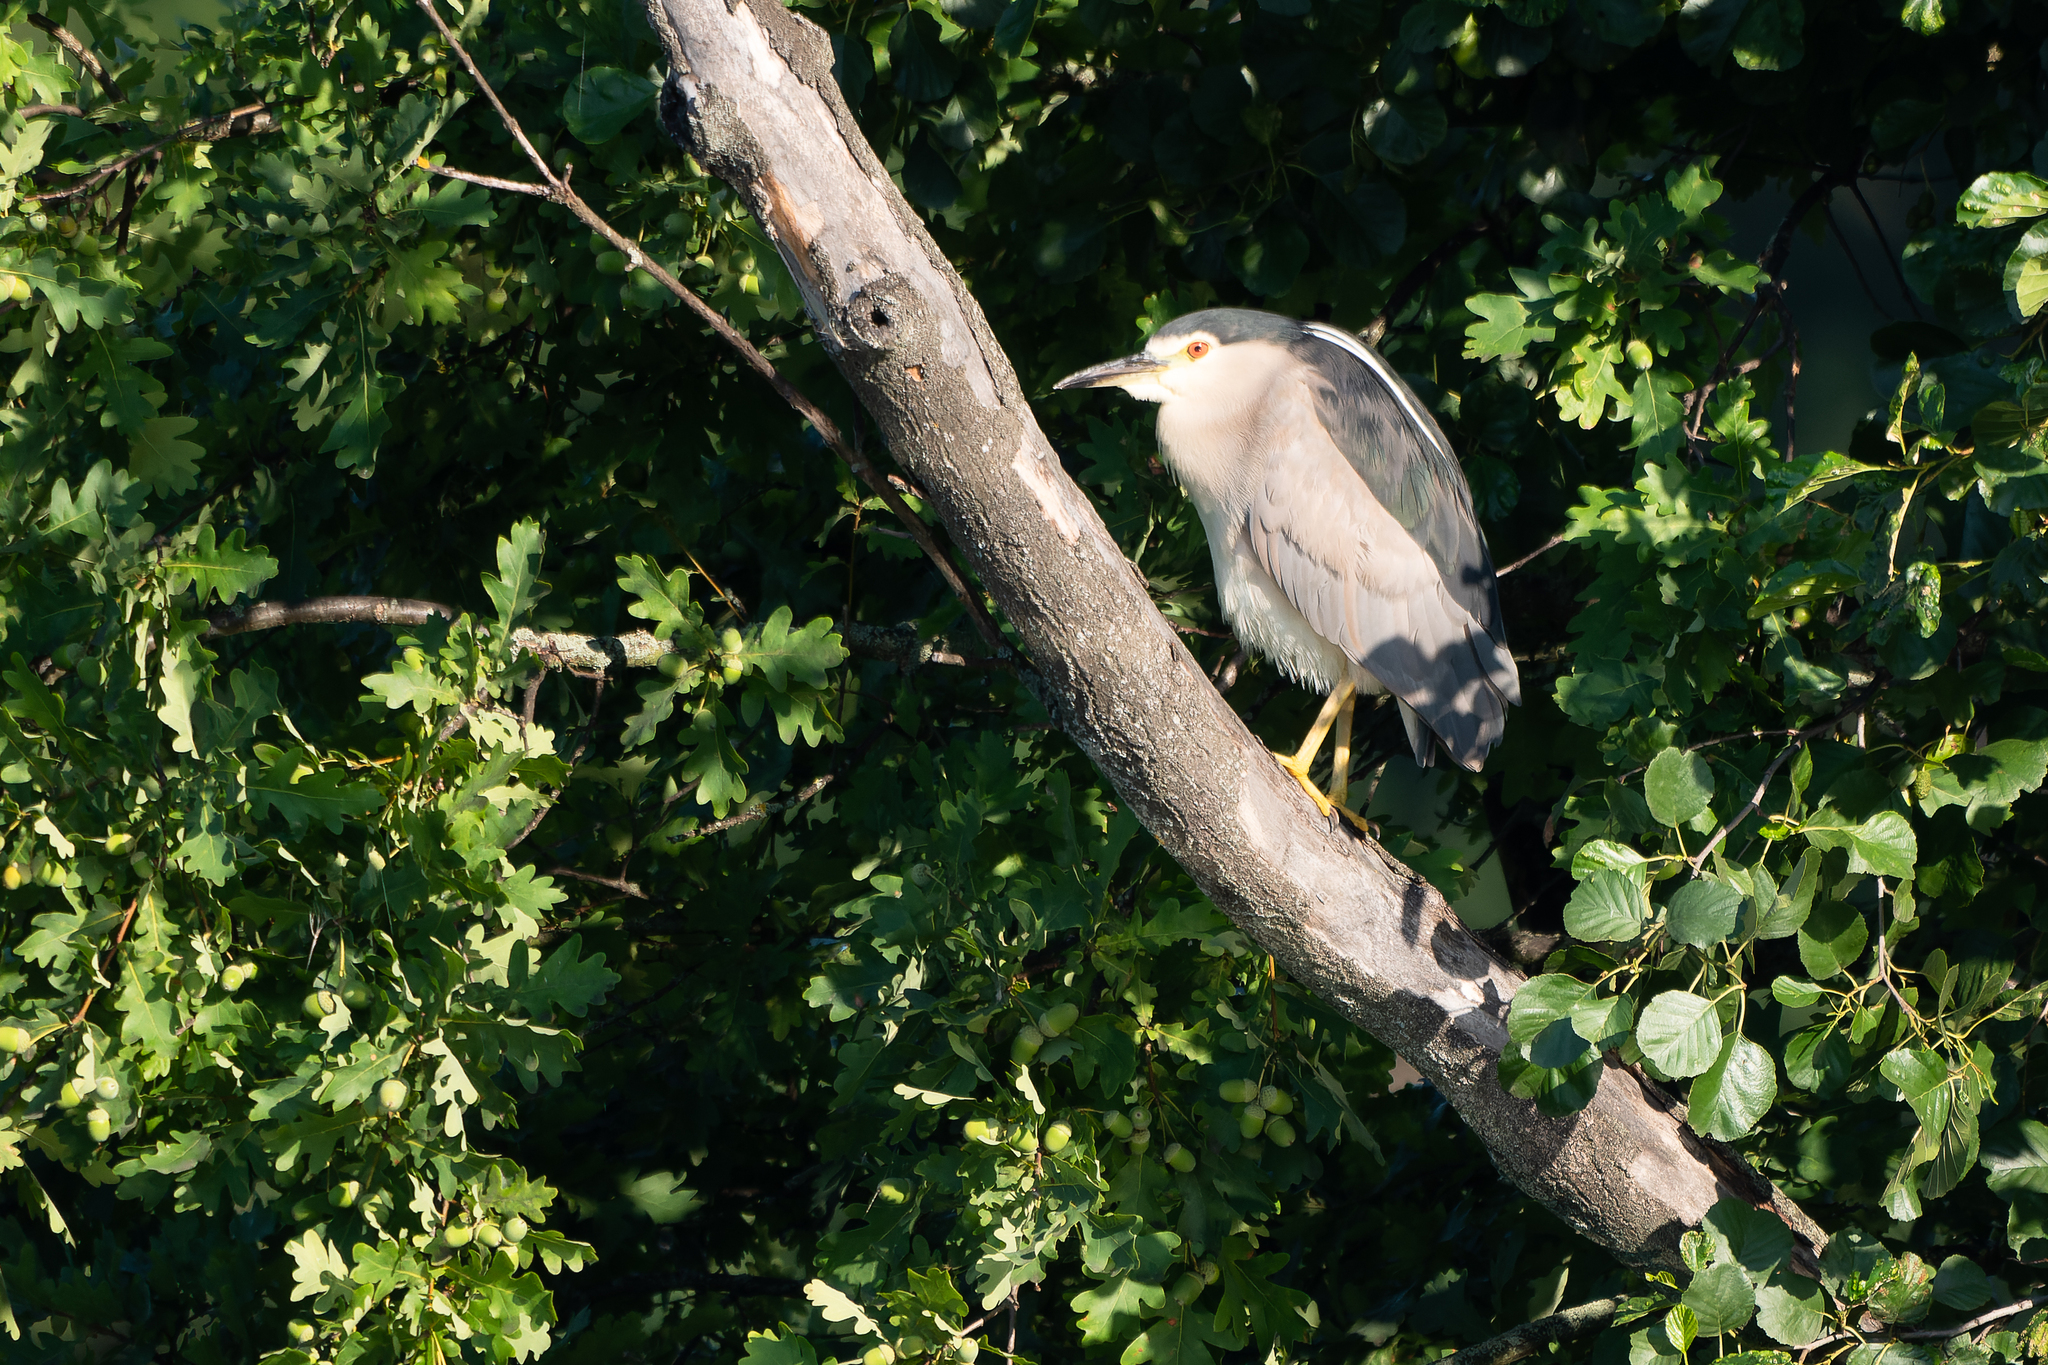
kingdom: Animalia
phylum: Chordata
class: Aves
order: Pelecaniformes
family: Ardeidae
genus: Nycticorax
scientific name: Nycticorax nycticorax
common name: Black-crowned night heron
